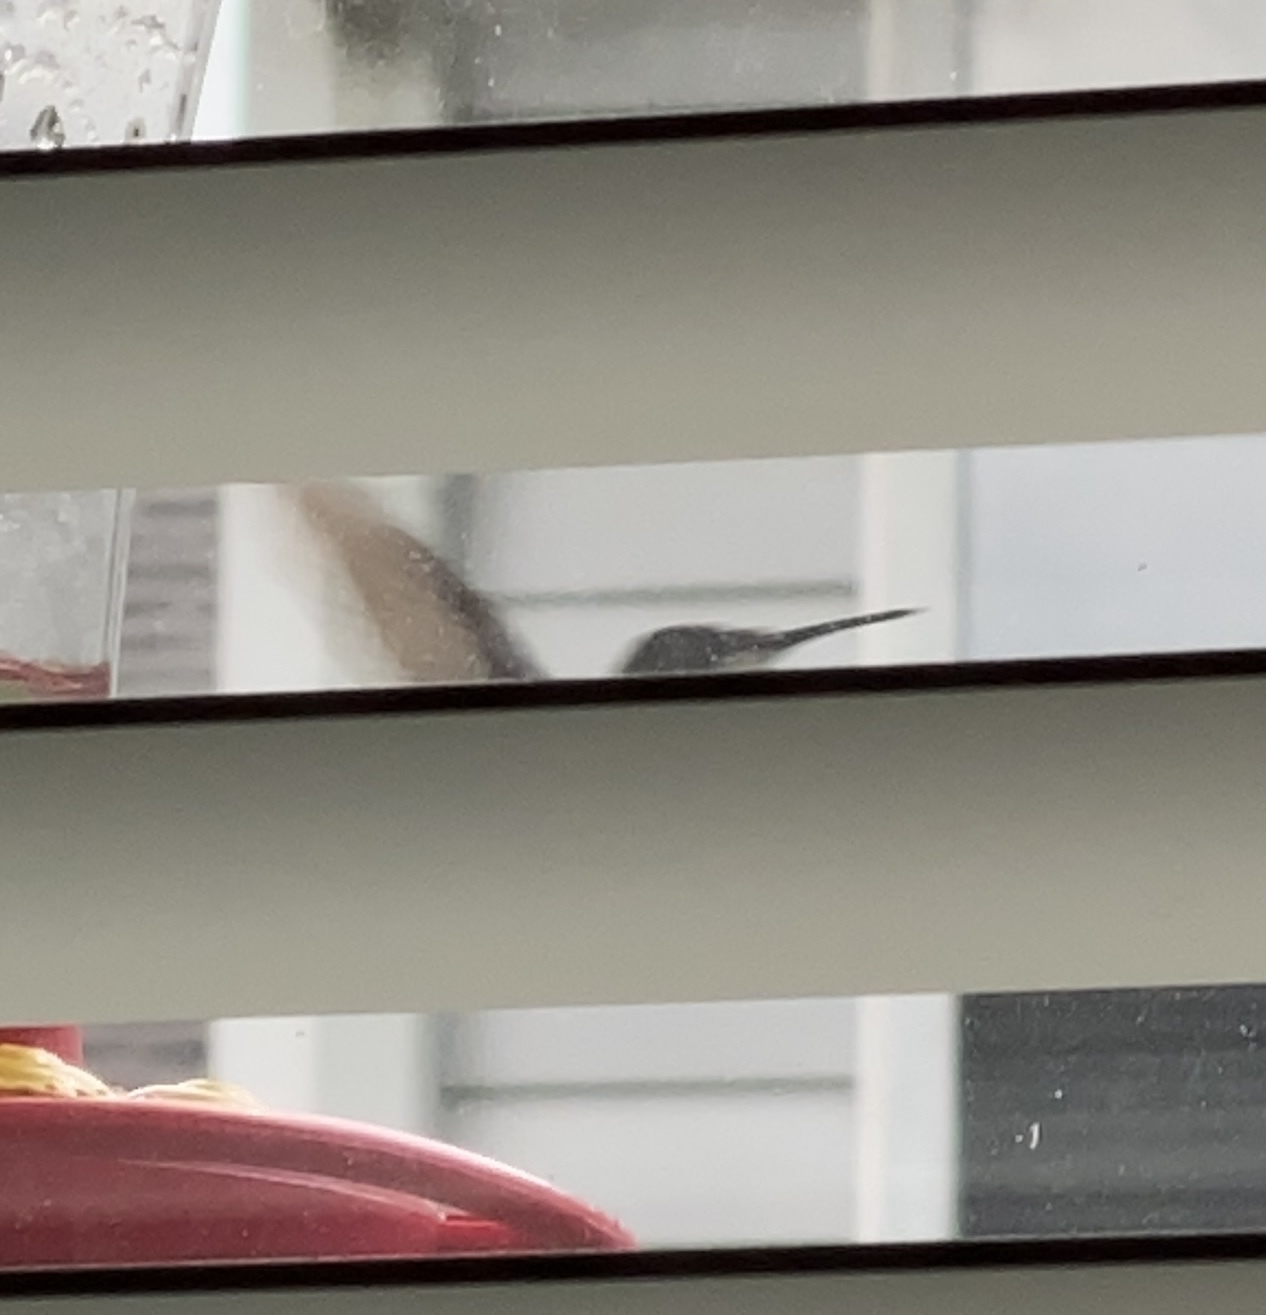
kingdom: Animalia
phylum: Chordata
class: Aves
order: Apodiformes
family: Trochilidae
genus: Archilochus
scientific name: Archilochus colubris
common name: Ruby-throated hummingbird
